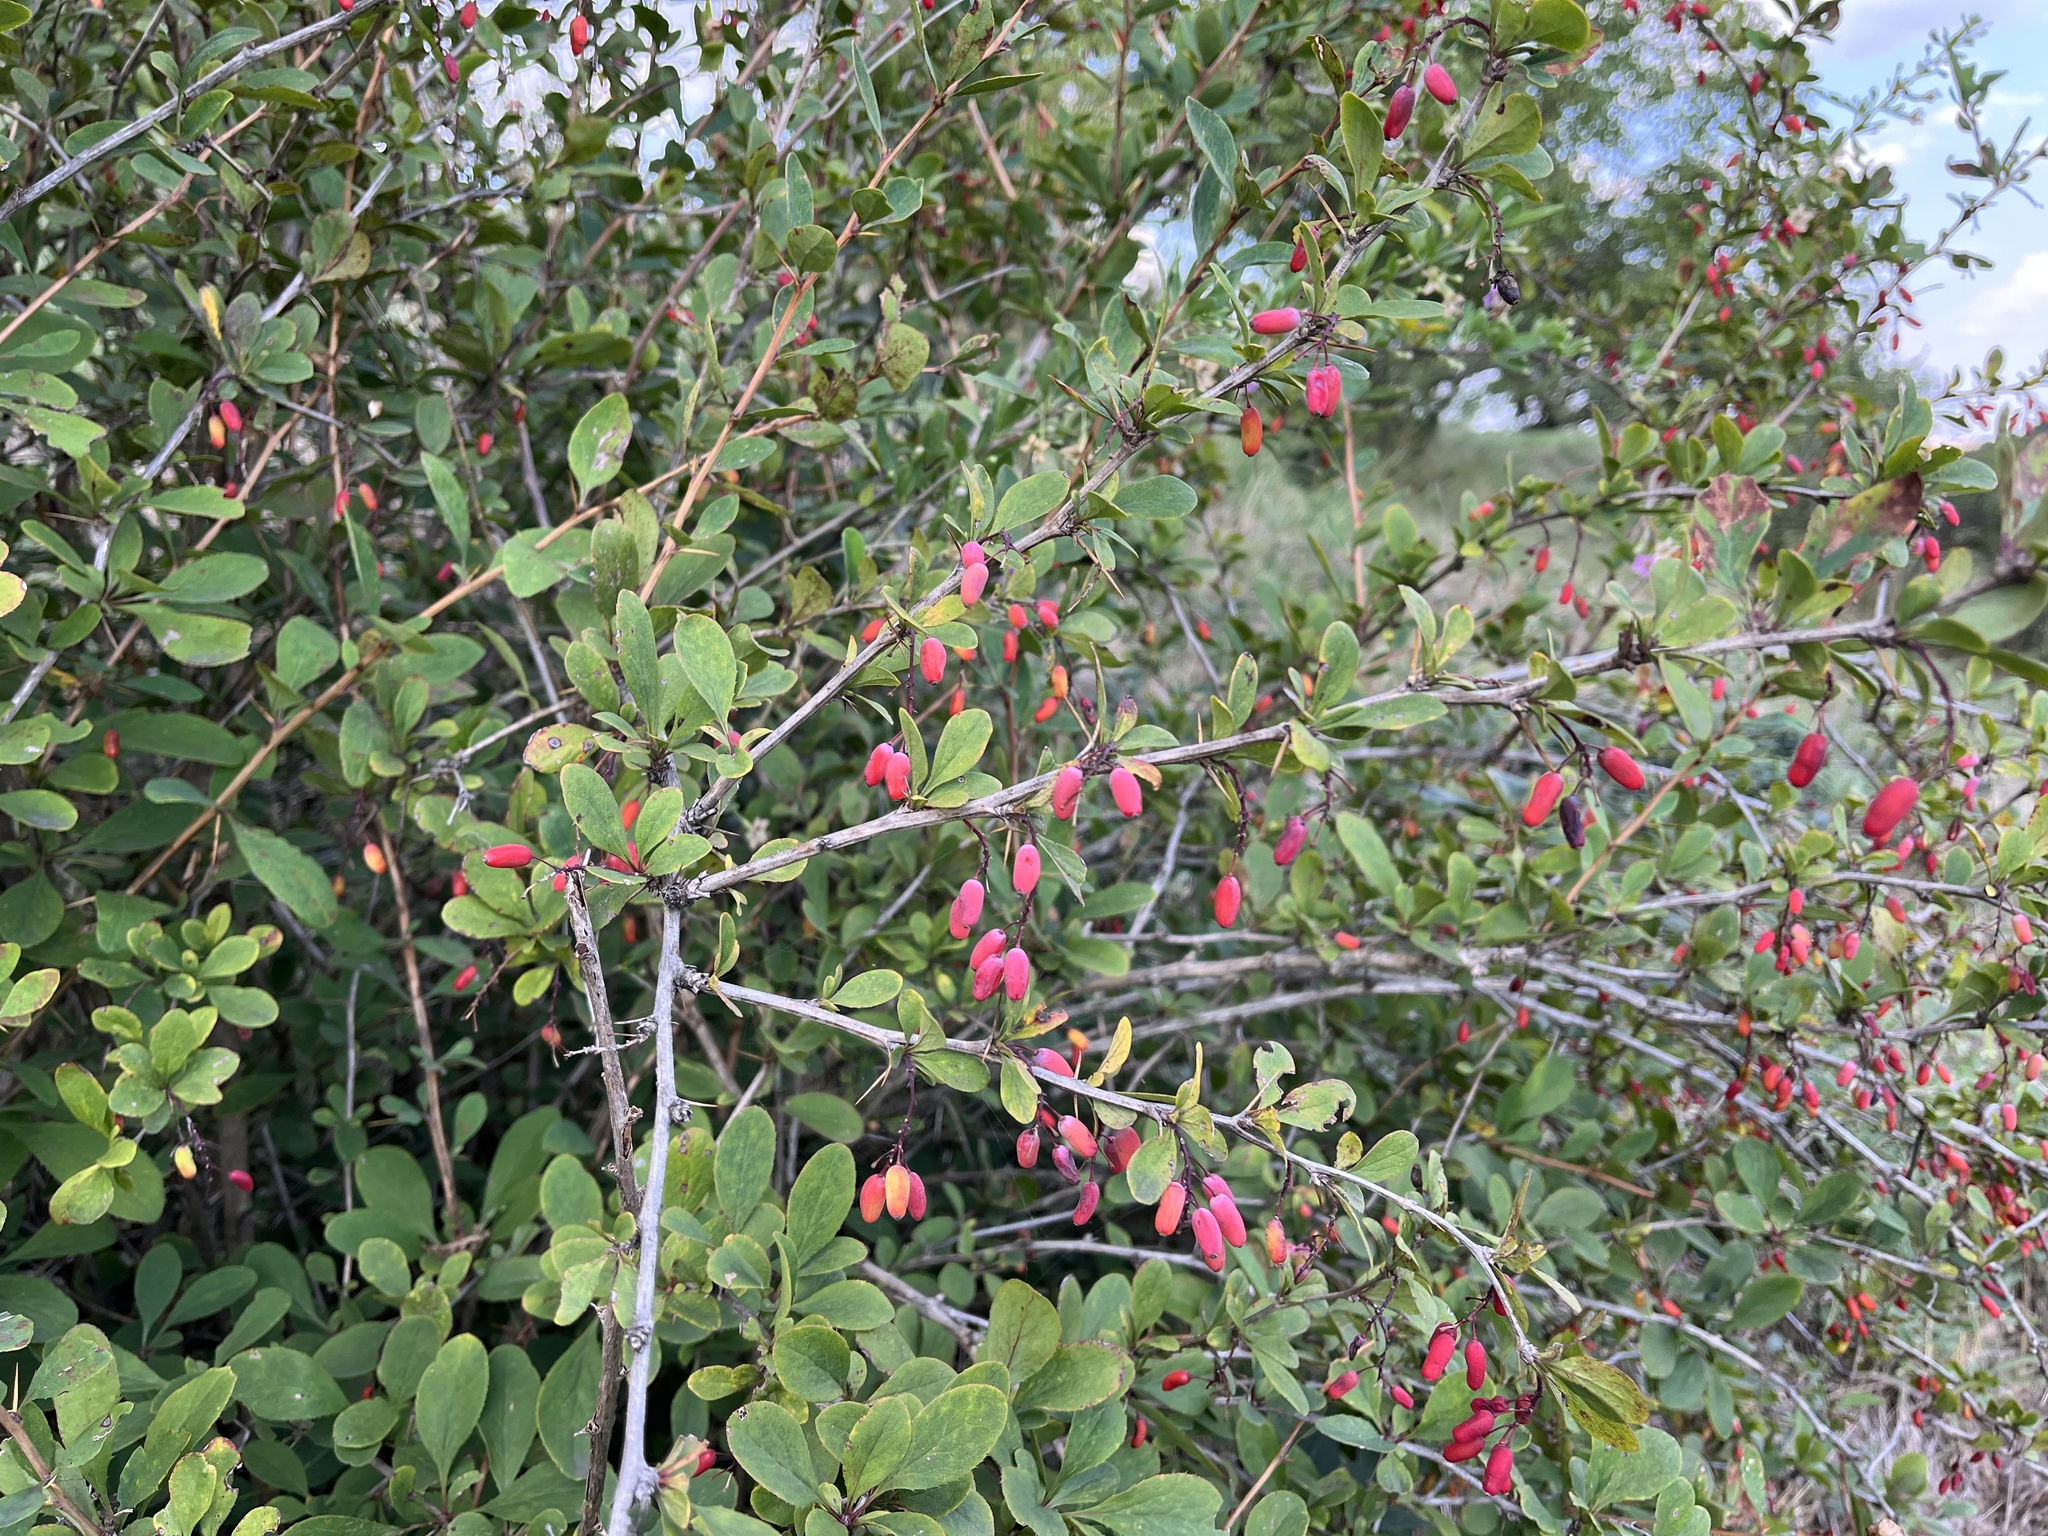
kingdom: Plantae
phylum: Tracheophyta
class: Magnoliopsida
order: Ranunculales
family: Berberidaceae
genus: Berberis
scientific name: Berberis vulgaris
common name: Barberry
